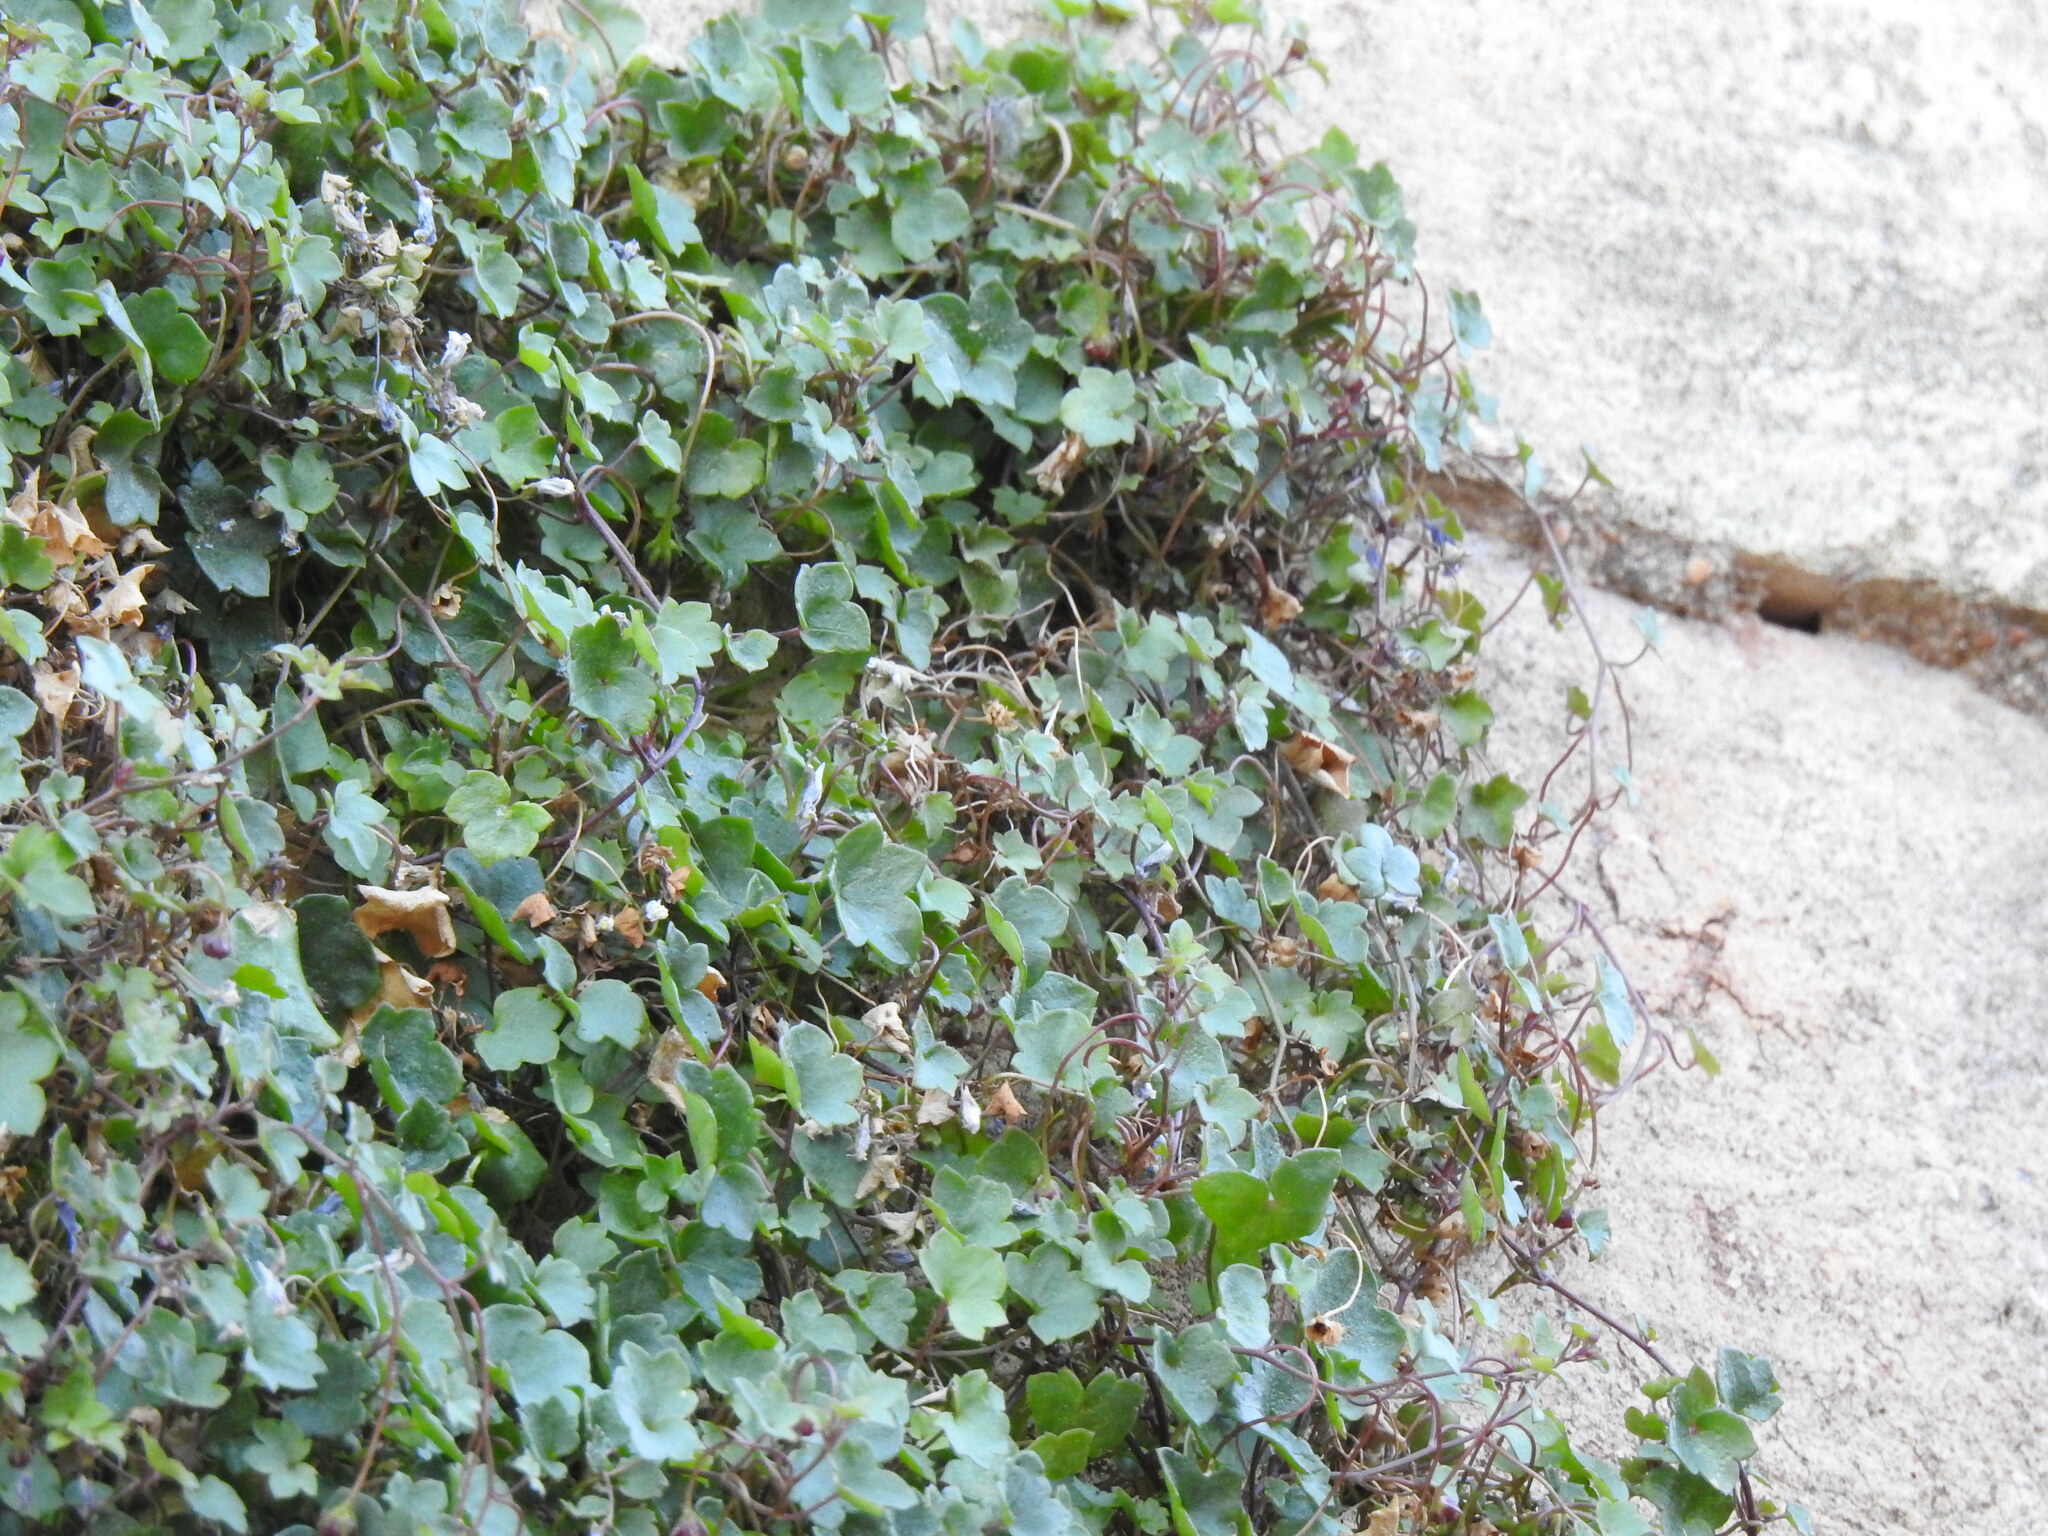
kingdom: Plantae
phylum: Tracheophyta
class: Magnoliopsida
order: Lamiales
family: Plantaginaceae
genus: Cymbalaria
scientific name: Cymbalaria muralis
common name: Ivy-leaved toadflax
